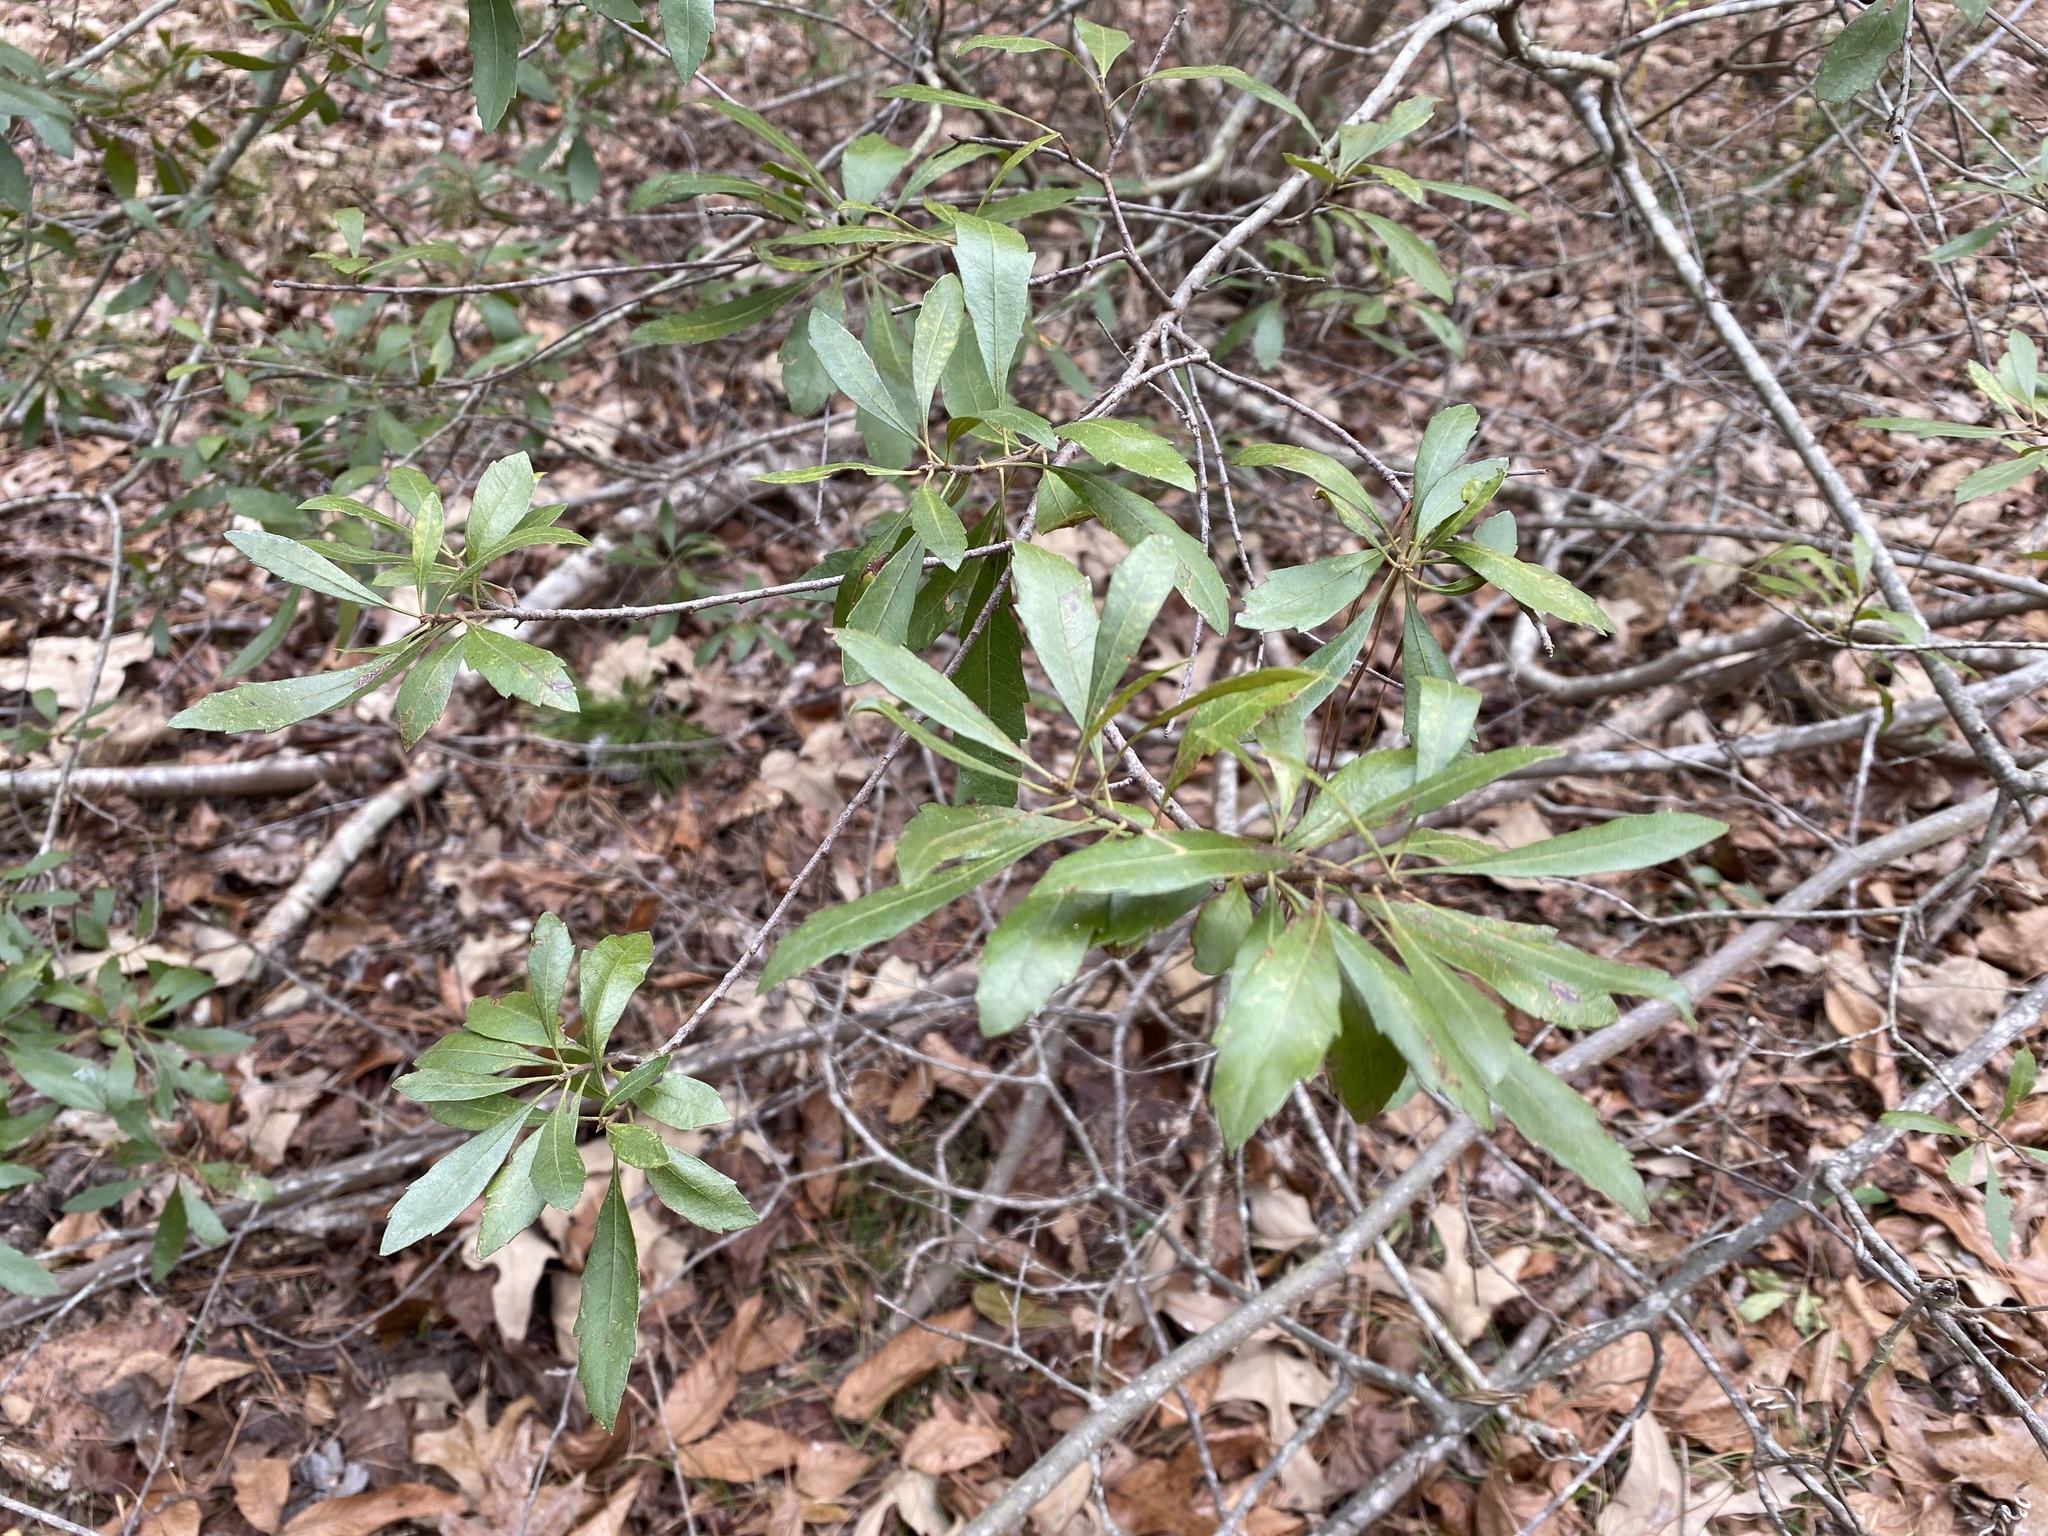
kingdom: Plantae
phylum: Tracheophyta
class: Magnoliopsida
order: Fagales
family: Myricaceae
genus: Morella
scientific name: Morella cerifera
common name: Wax myrtle
